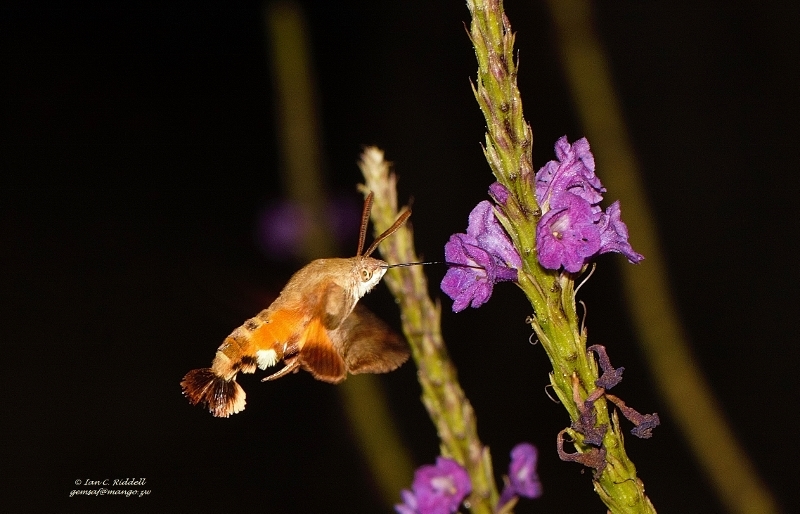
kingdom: Animalia
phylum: Arthropoda
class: Insecta
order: Lepidoptera
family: Sphingidae
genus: Macroglossum
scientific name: Macroglossum trochilus
